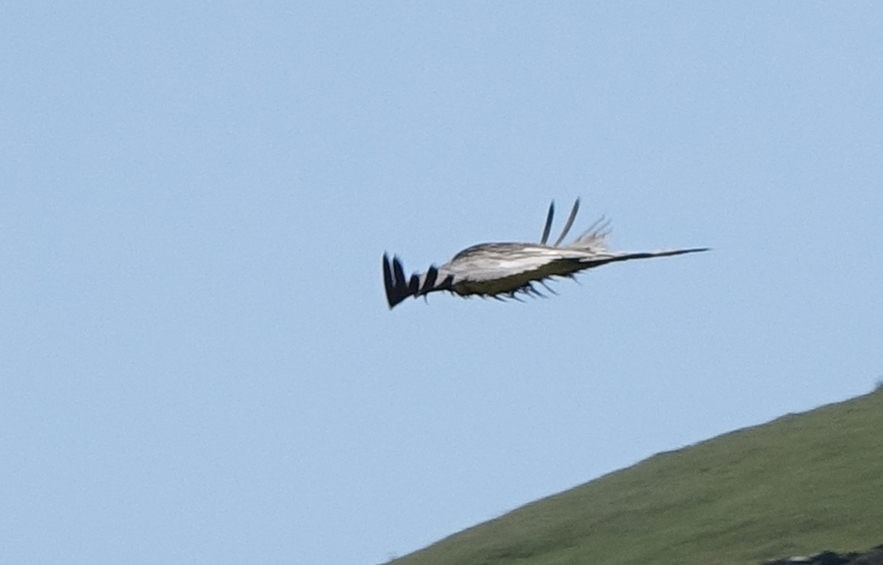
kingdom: Animalia
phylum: Chordata
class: Aves
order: Accipitriformes
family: Accipitridae
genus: Gypaetus
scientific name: Gypaetus barbatus
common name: Bearded vulture
